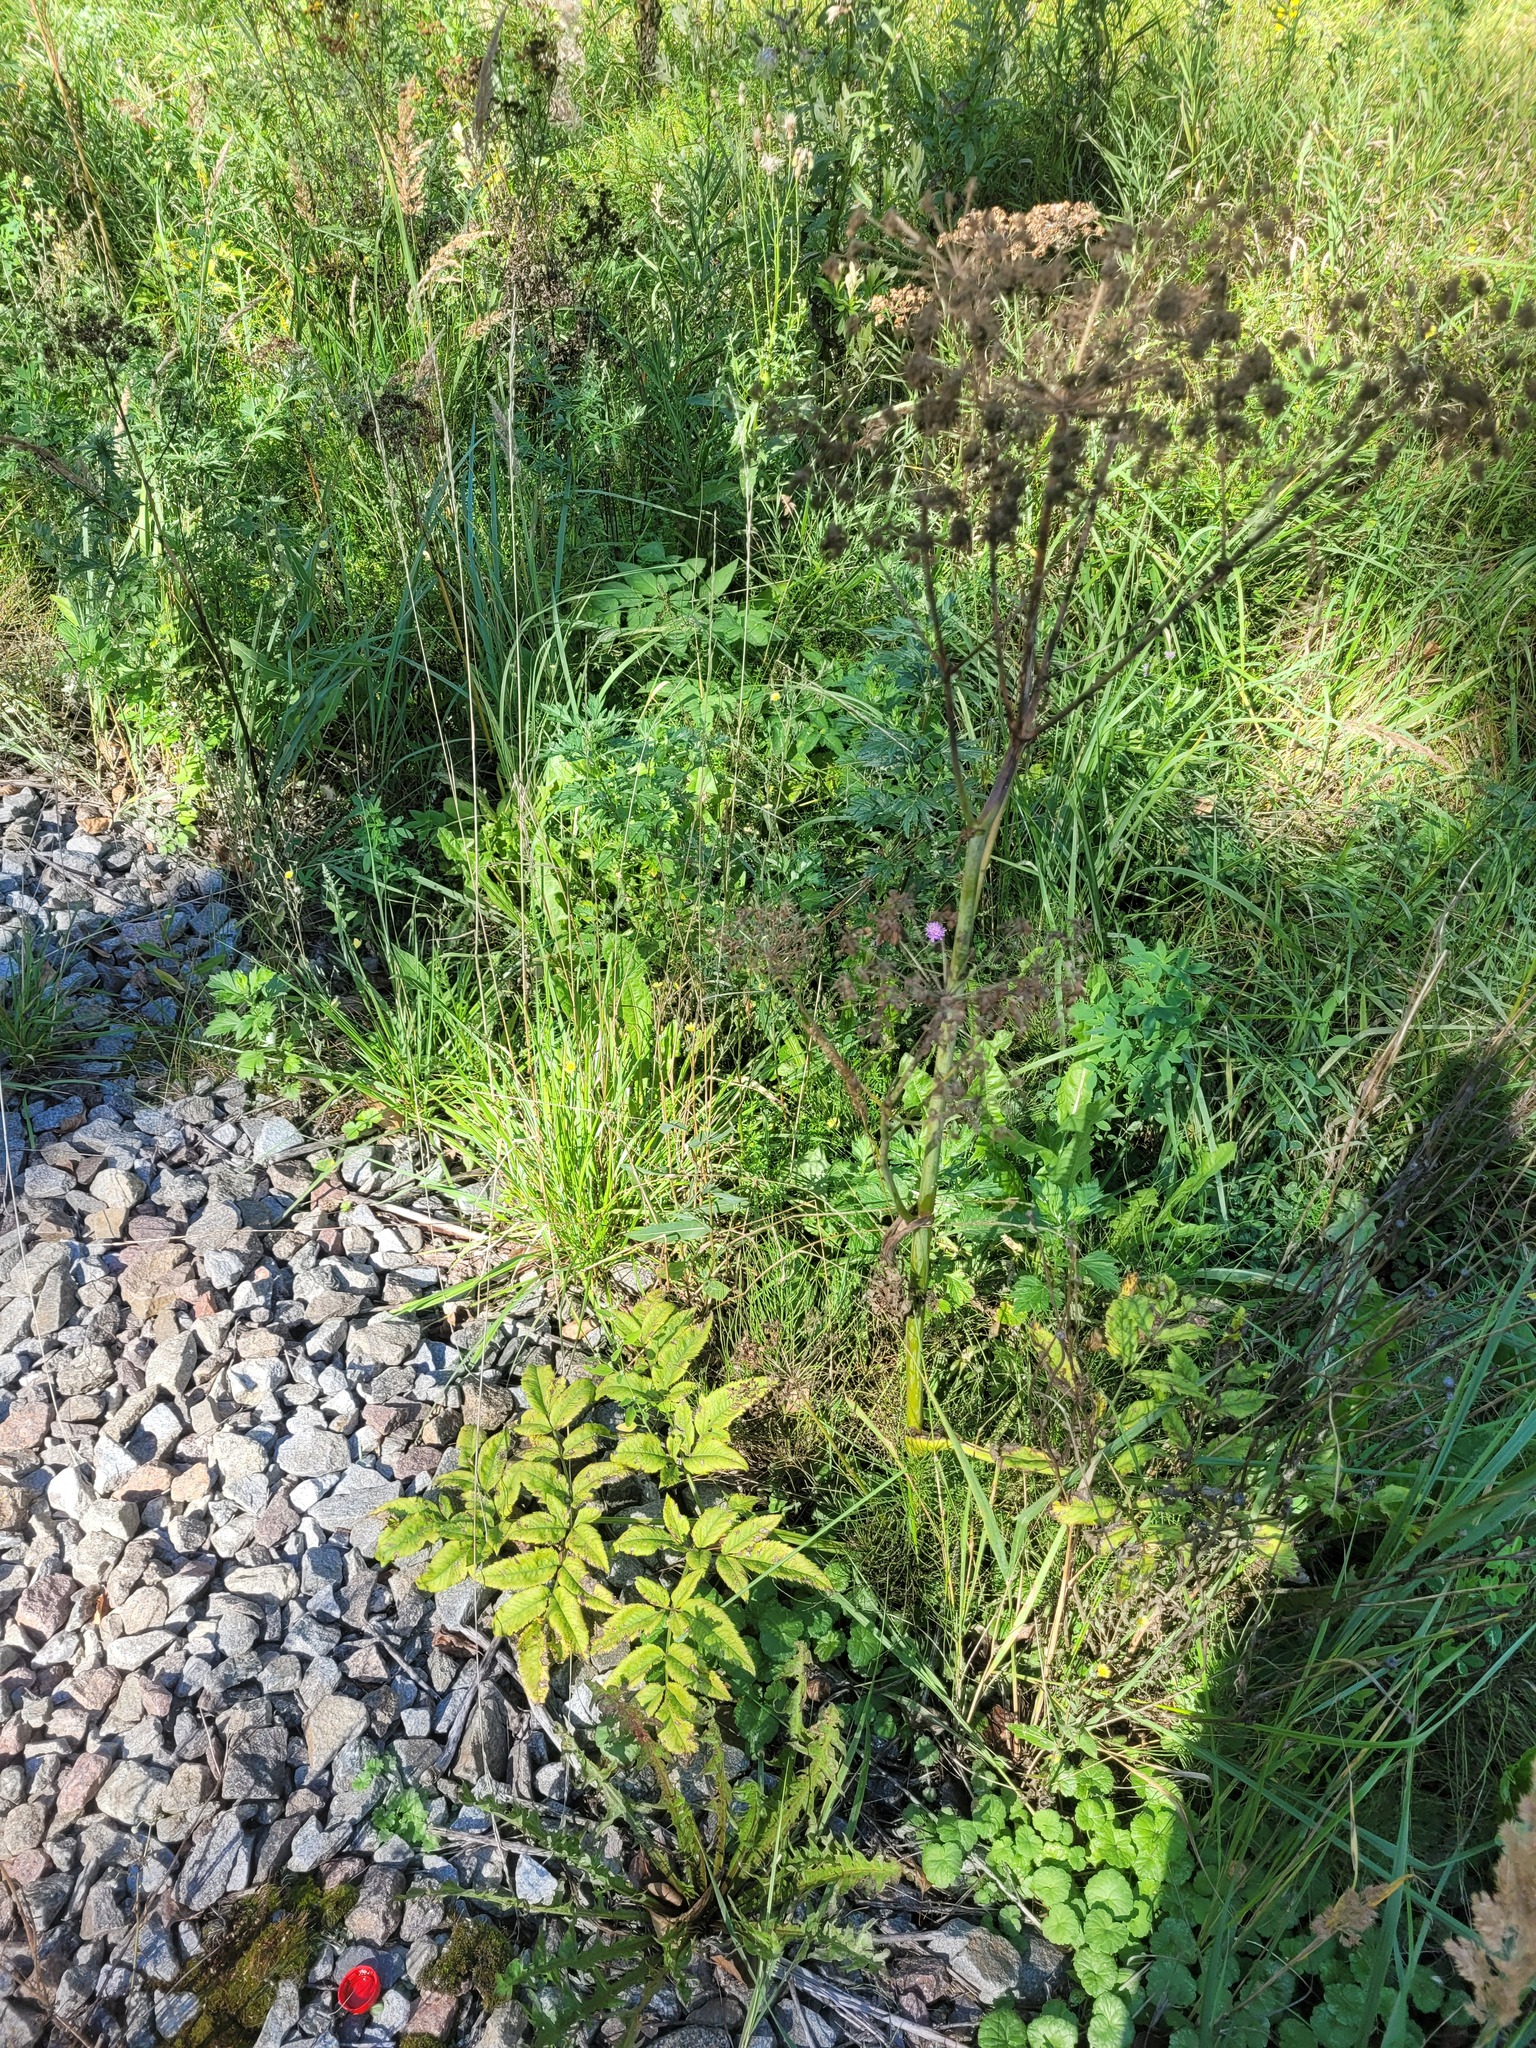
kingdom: Plantae
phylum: Tracheophyta
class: Magnoliopsida
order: Apiales
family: Apiaceae
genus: Angelica
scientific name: Angelica sylvestris
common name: Wild angelica
